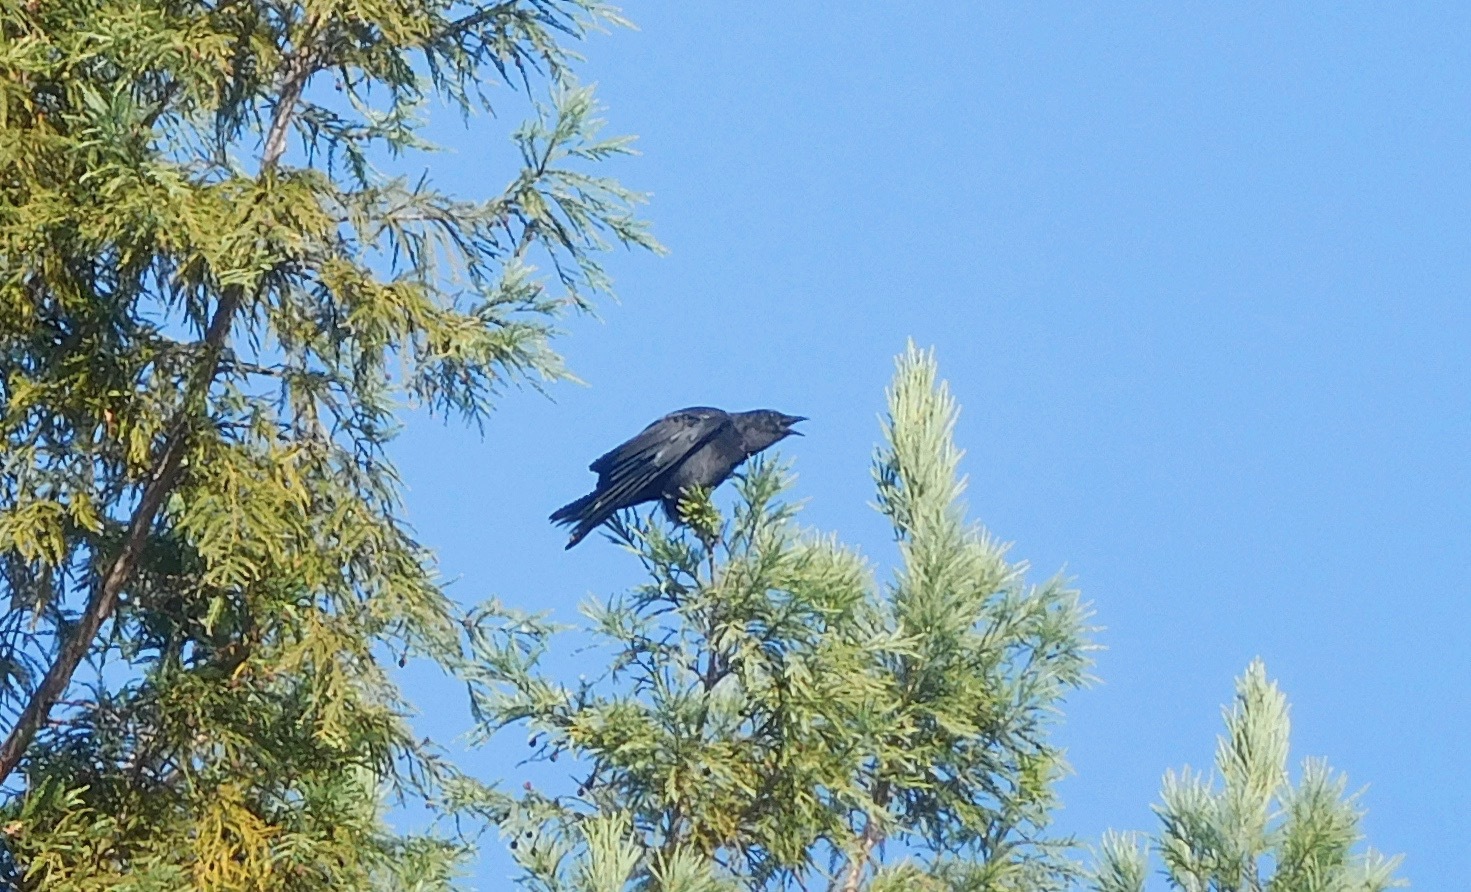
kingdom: Animalia
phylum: Chordata
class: Aves
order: Passeriformes
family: Corvidae
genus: Corvus
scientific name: Corvus brachyrhynchos
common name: American crow
